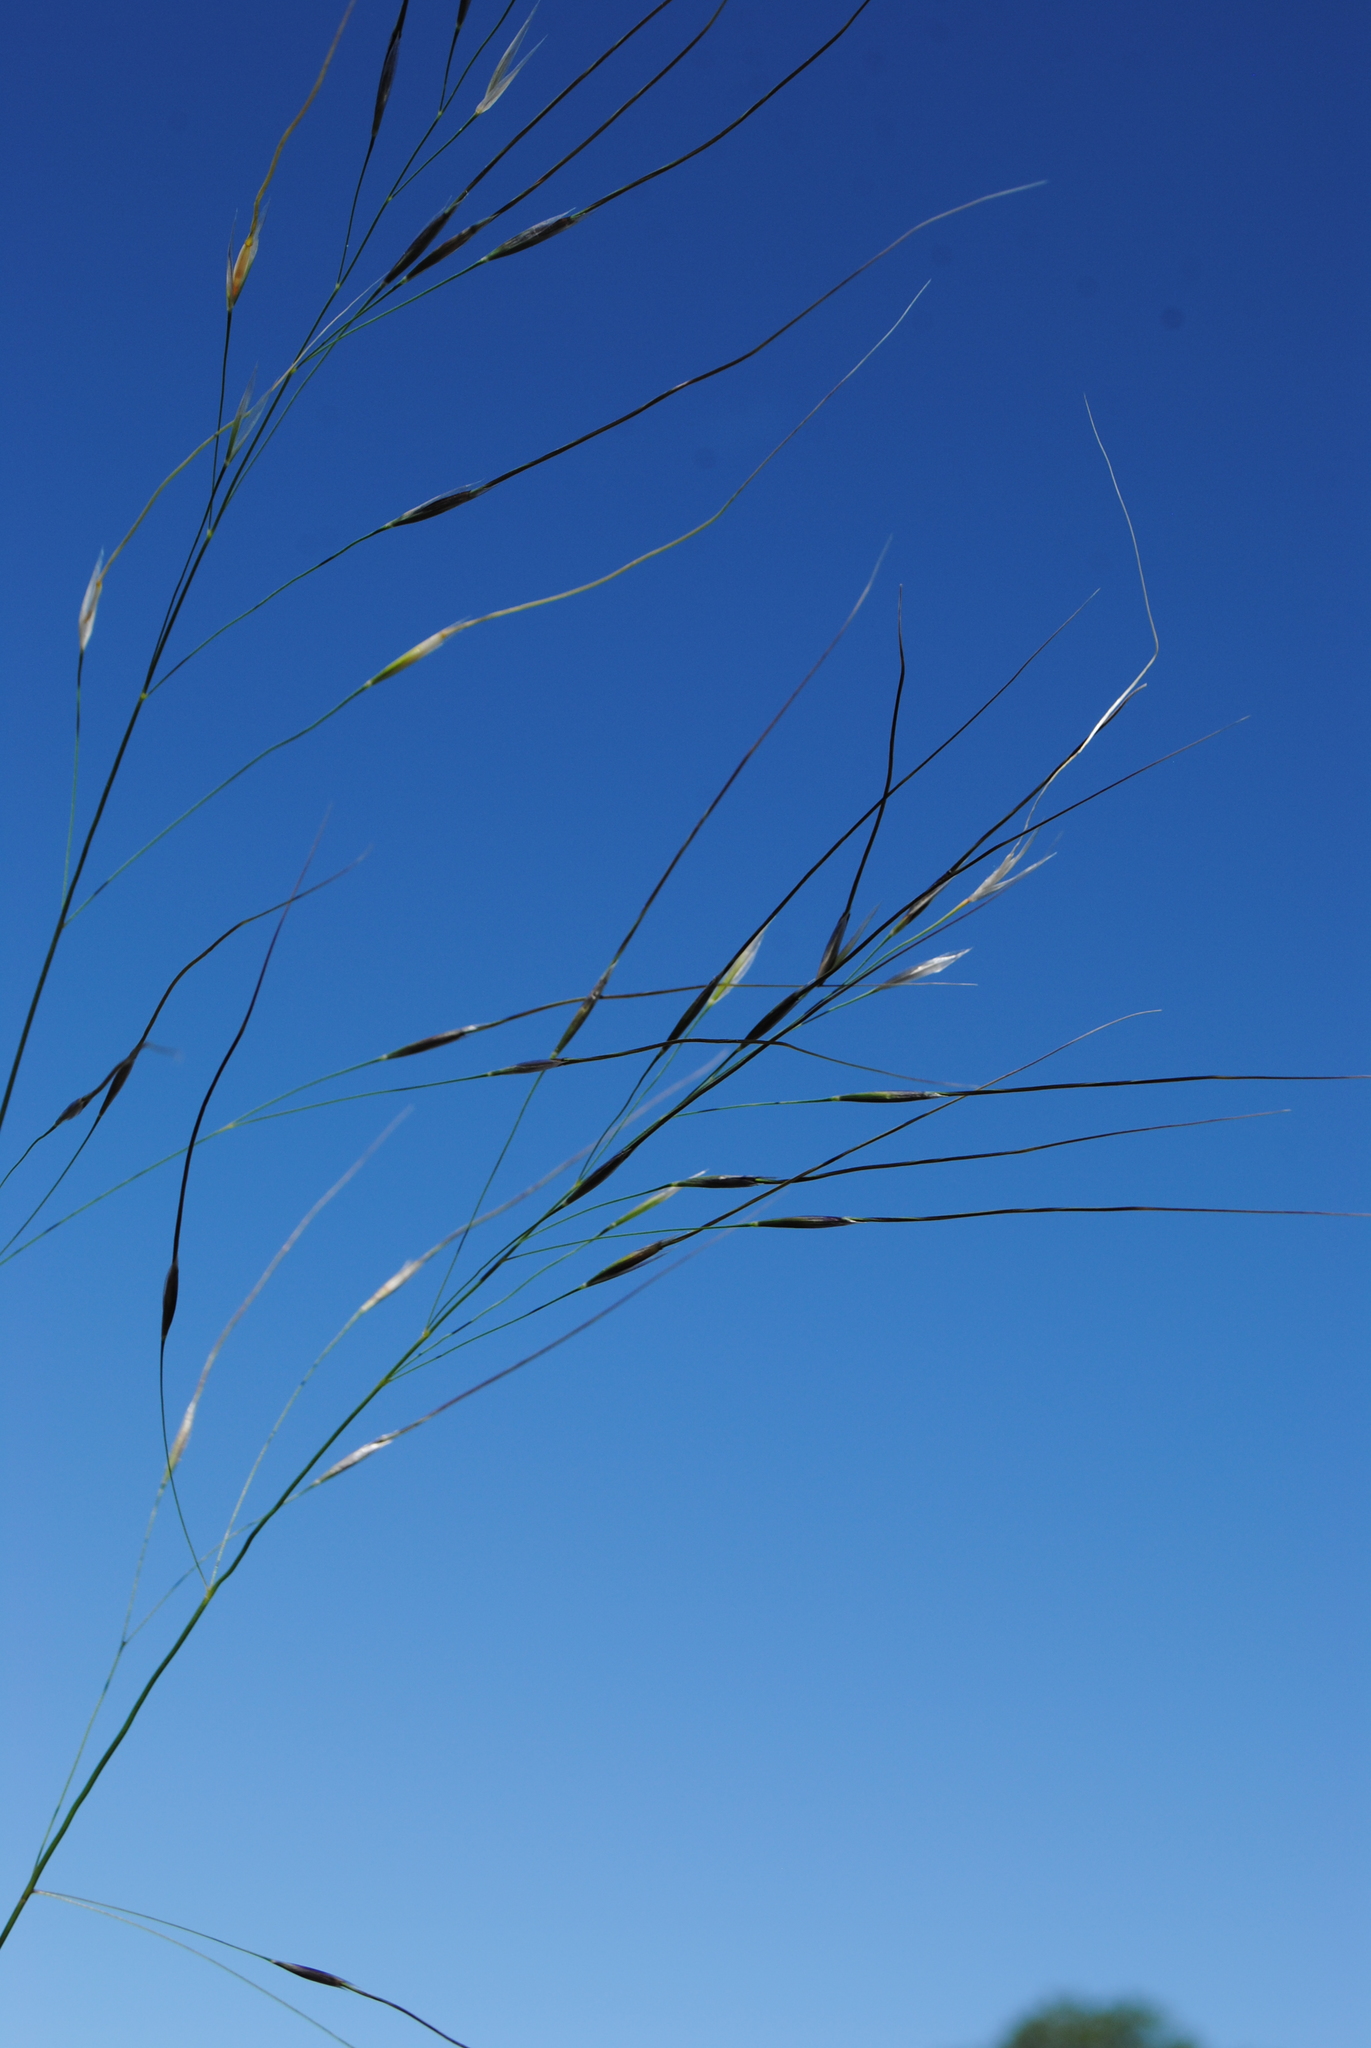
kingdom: Plantae
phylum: Tracheophyta
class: Liliopsida
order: Poales
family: Poaceae
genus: Piptochaetium
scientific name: Piptochaetium avenaceum
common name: Black bunchgrass
